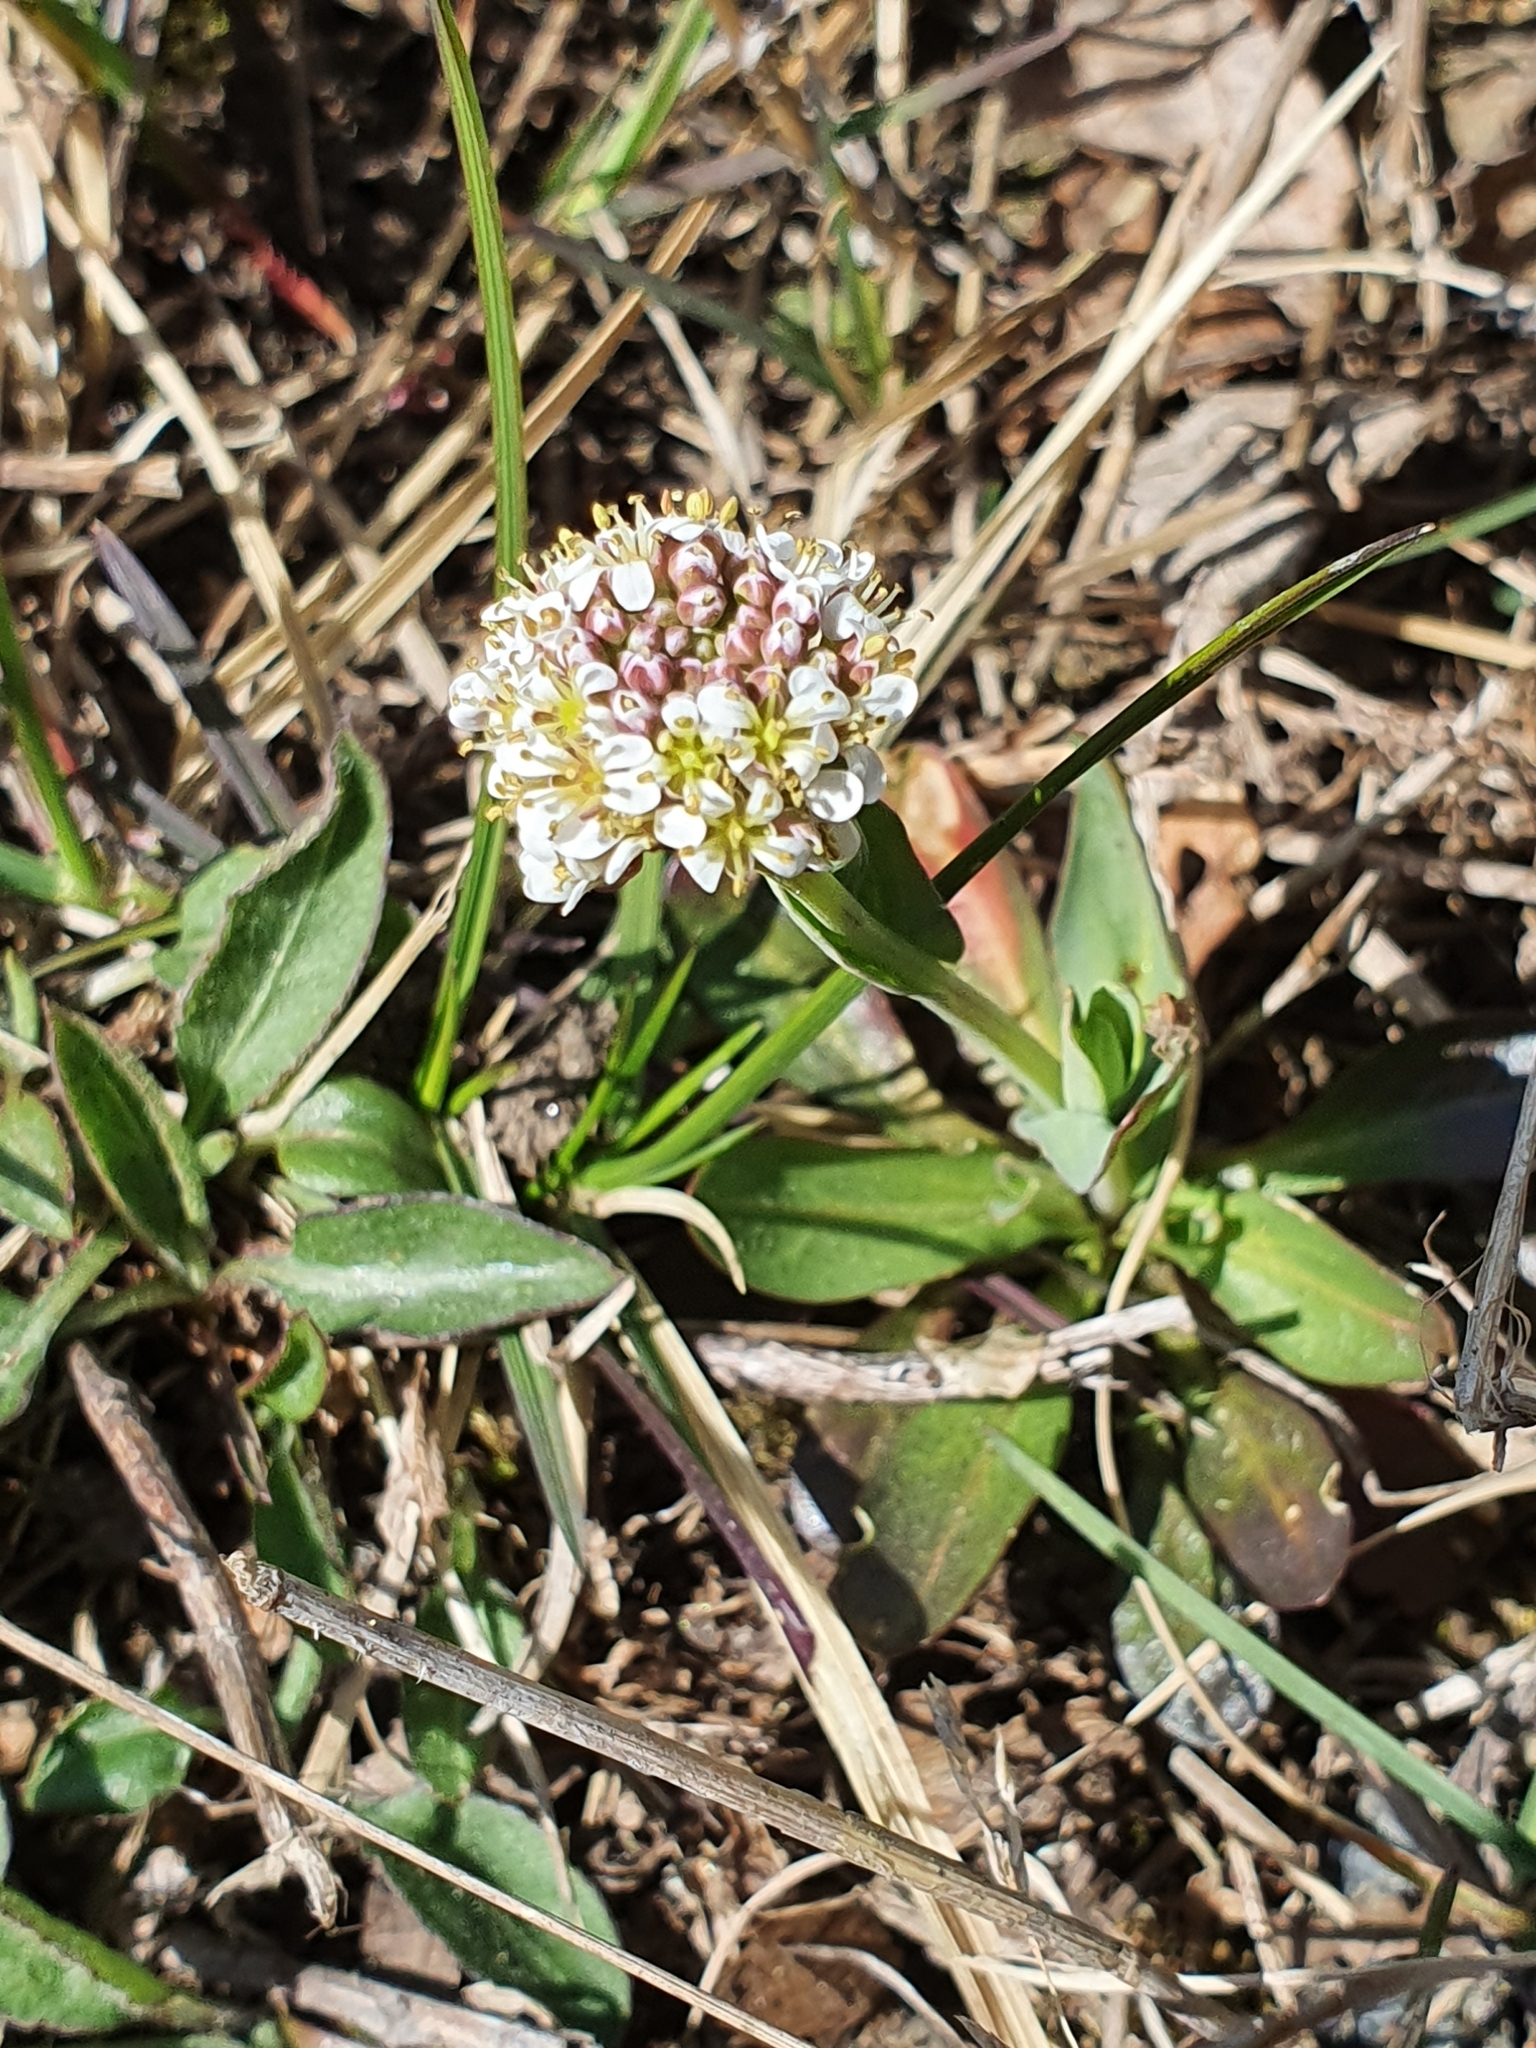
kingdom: Plantae
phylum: Tracheophyta
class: Magnoliopsida
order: Brassicales
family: Brassicaceae
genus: Noccaea
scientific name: Noccaea caerulescens
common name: Alpine pennycress
